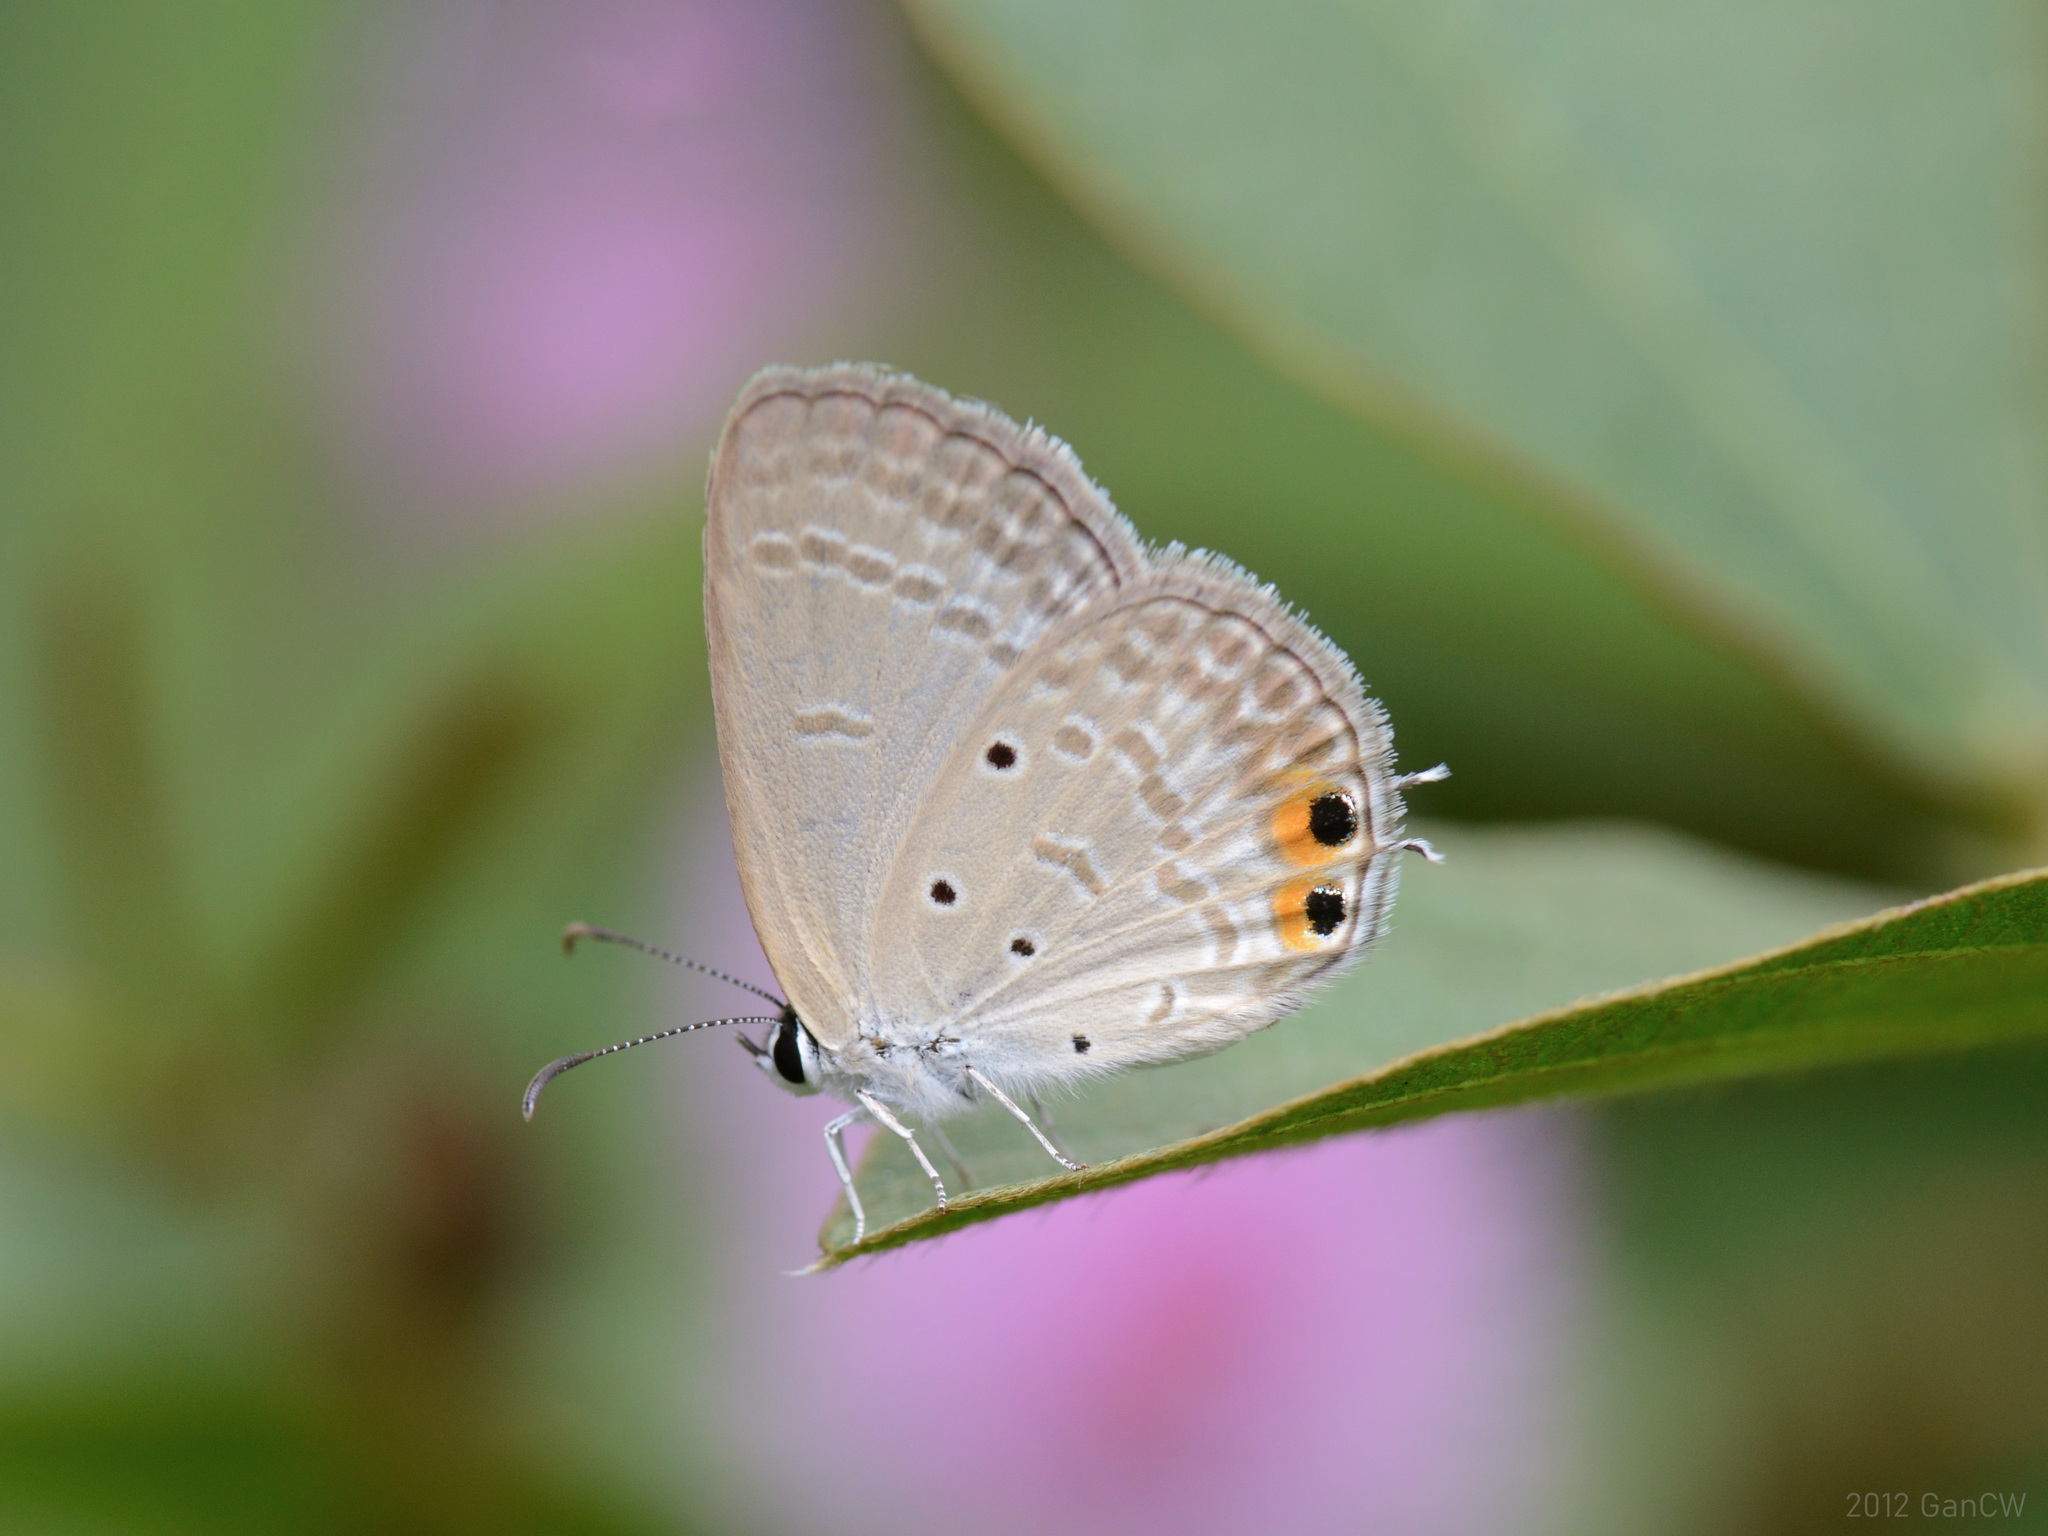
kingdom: Animalia
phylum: Arthropoda
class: Insecta
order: Lepidoptera
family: Lycaenidae
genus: Euchrysops
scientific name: Euchrysops cnejus
